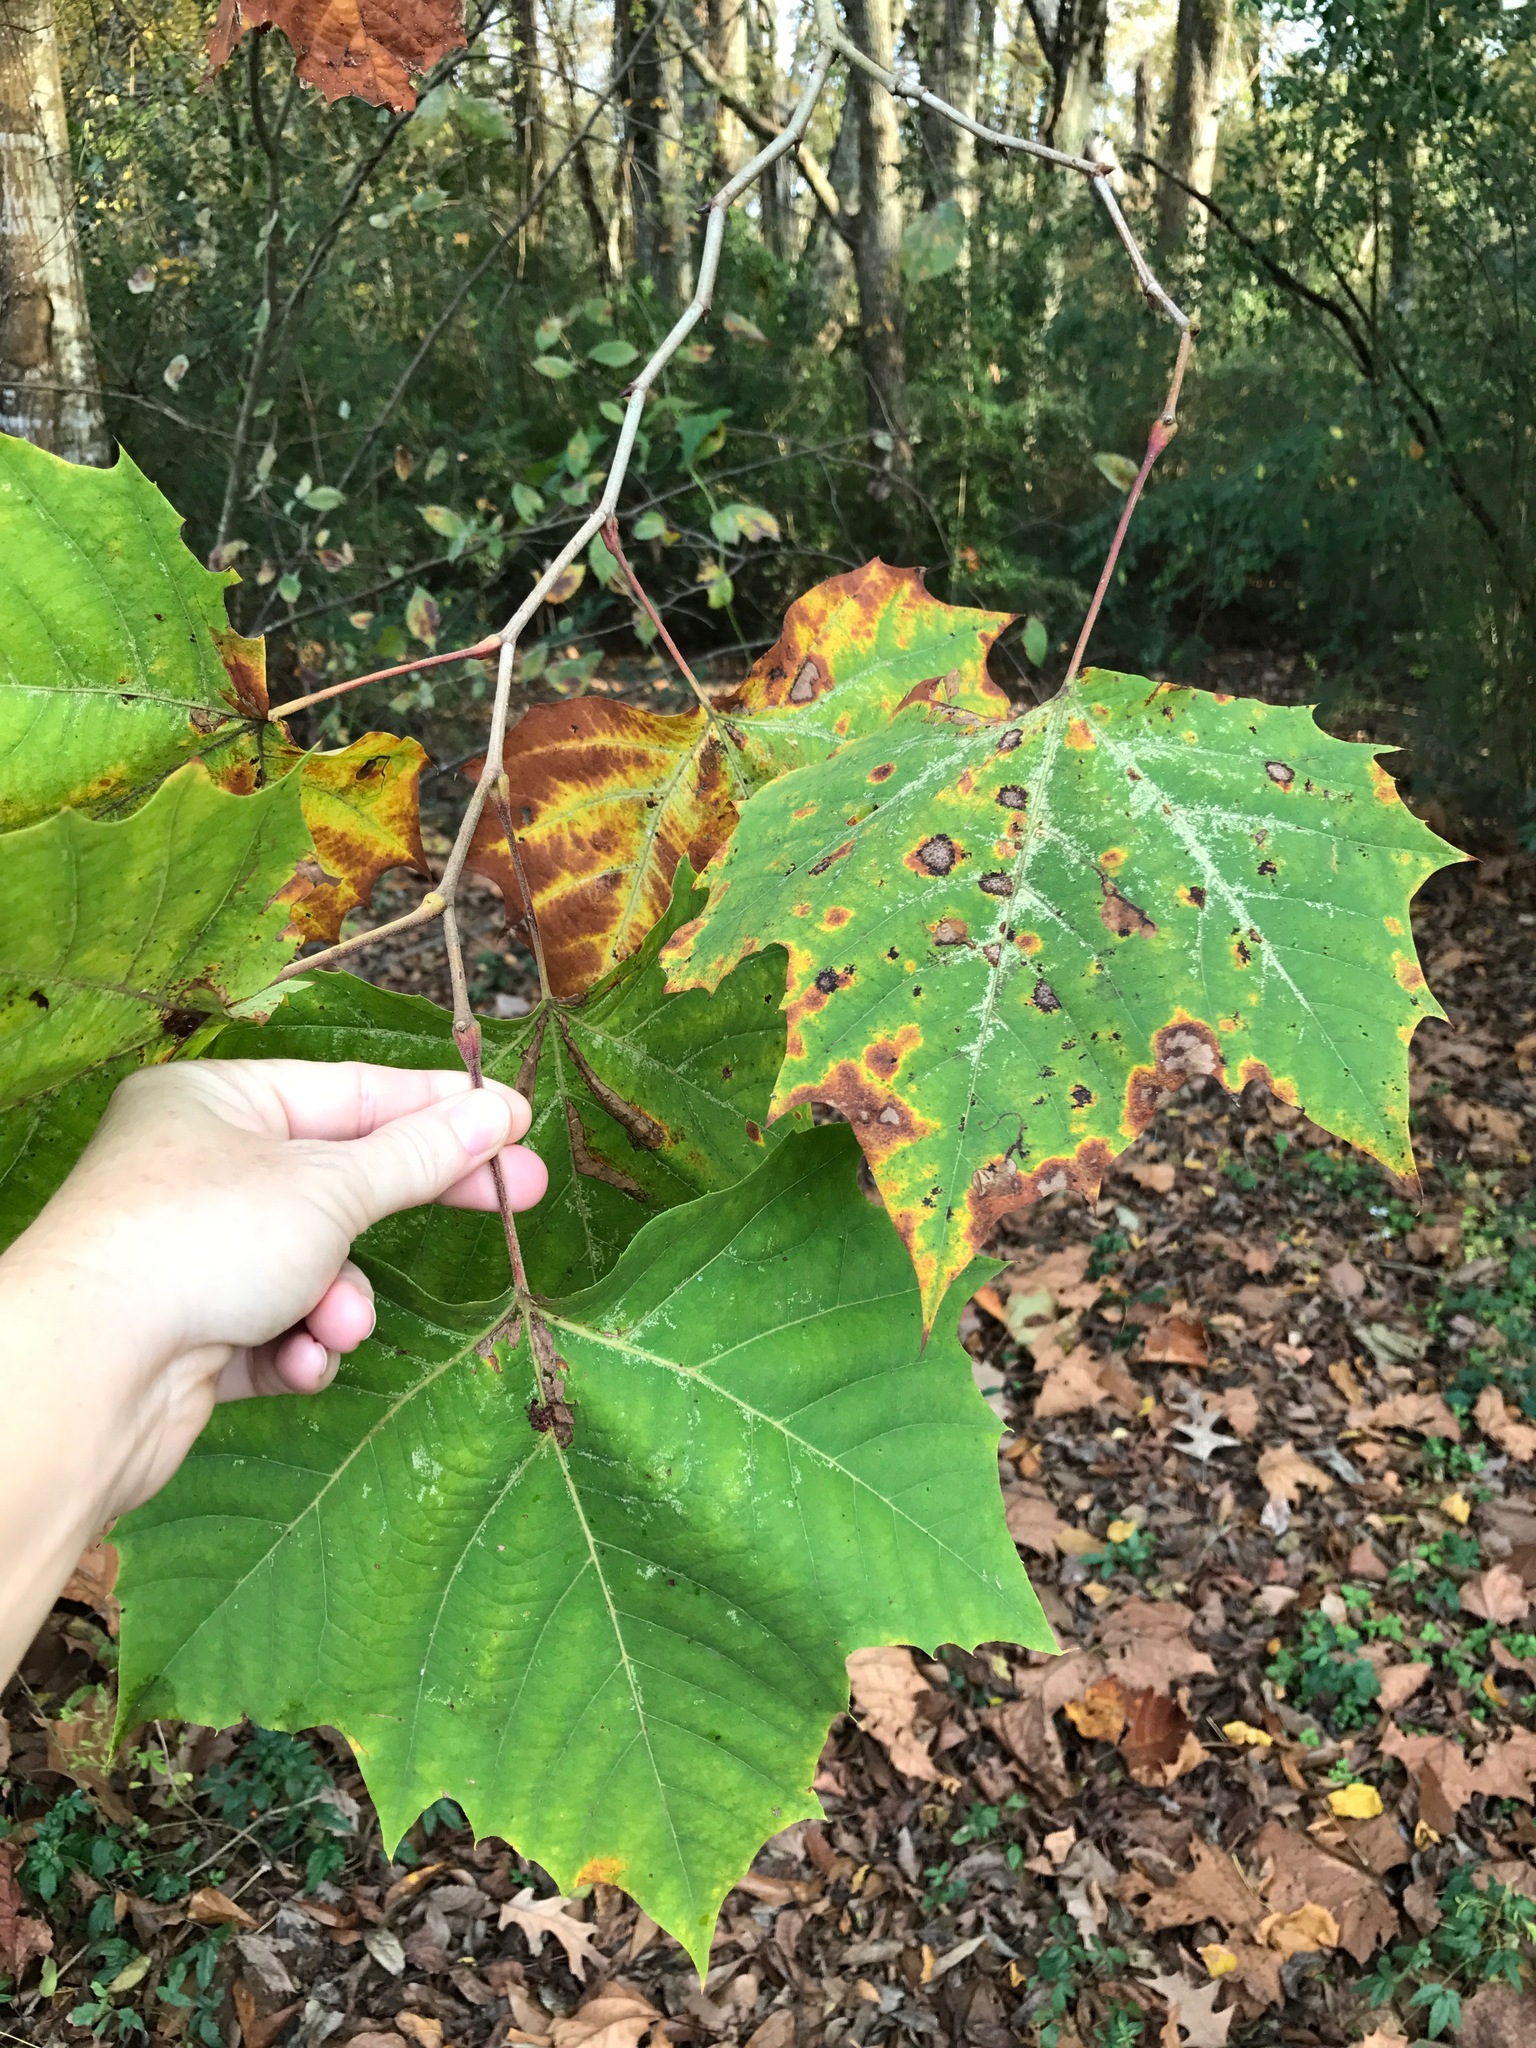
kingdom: Plantae
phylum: Tracheophyta
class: Magnoliopsida
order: Proteales
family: Platanaceae
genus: Platanus
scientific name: Platanus occidentalis
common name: American sycamore
